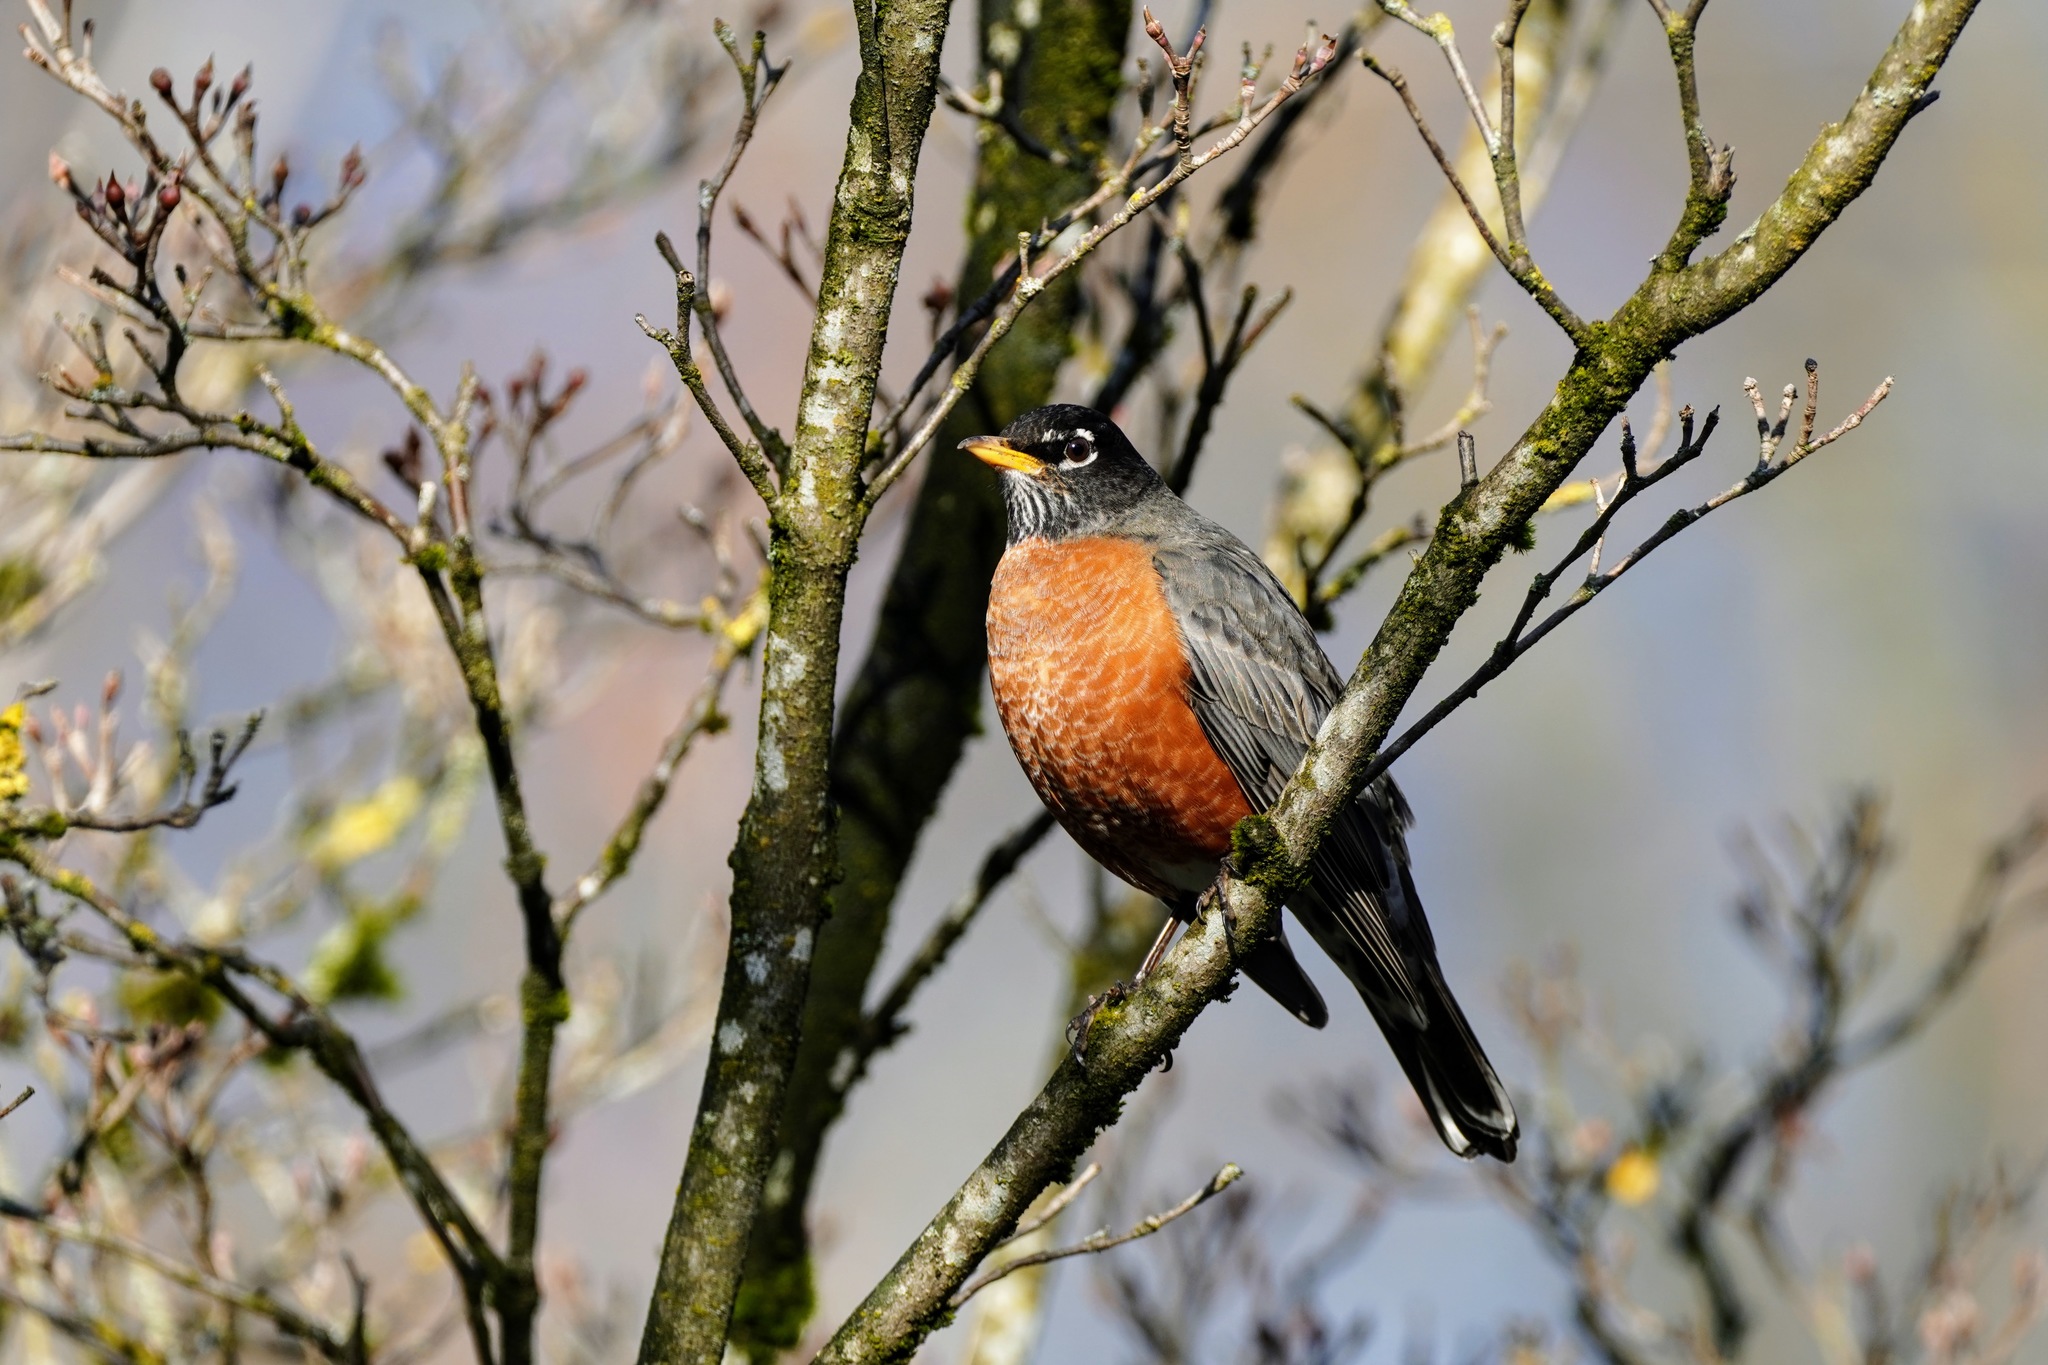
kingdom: Animalia
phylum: Chordata
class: Aves
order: Passeriformes
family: Turdidae
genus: Turdus
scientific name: Turdus migratorius
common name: American robin
